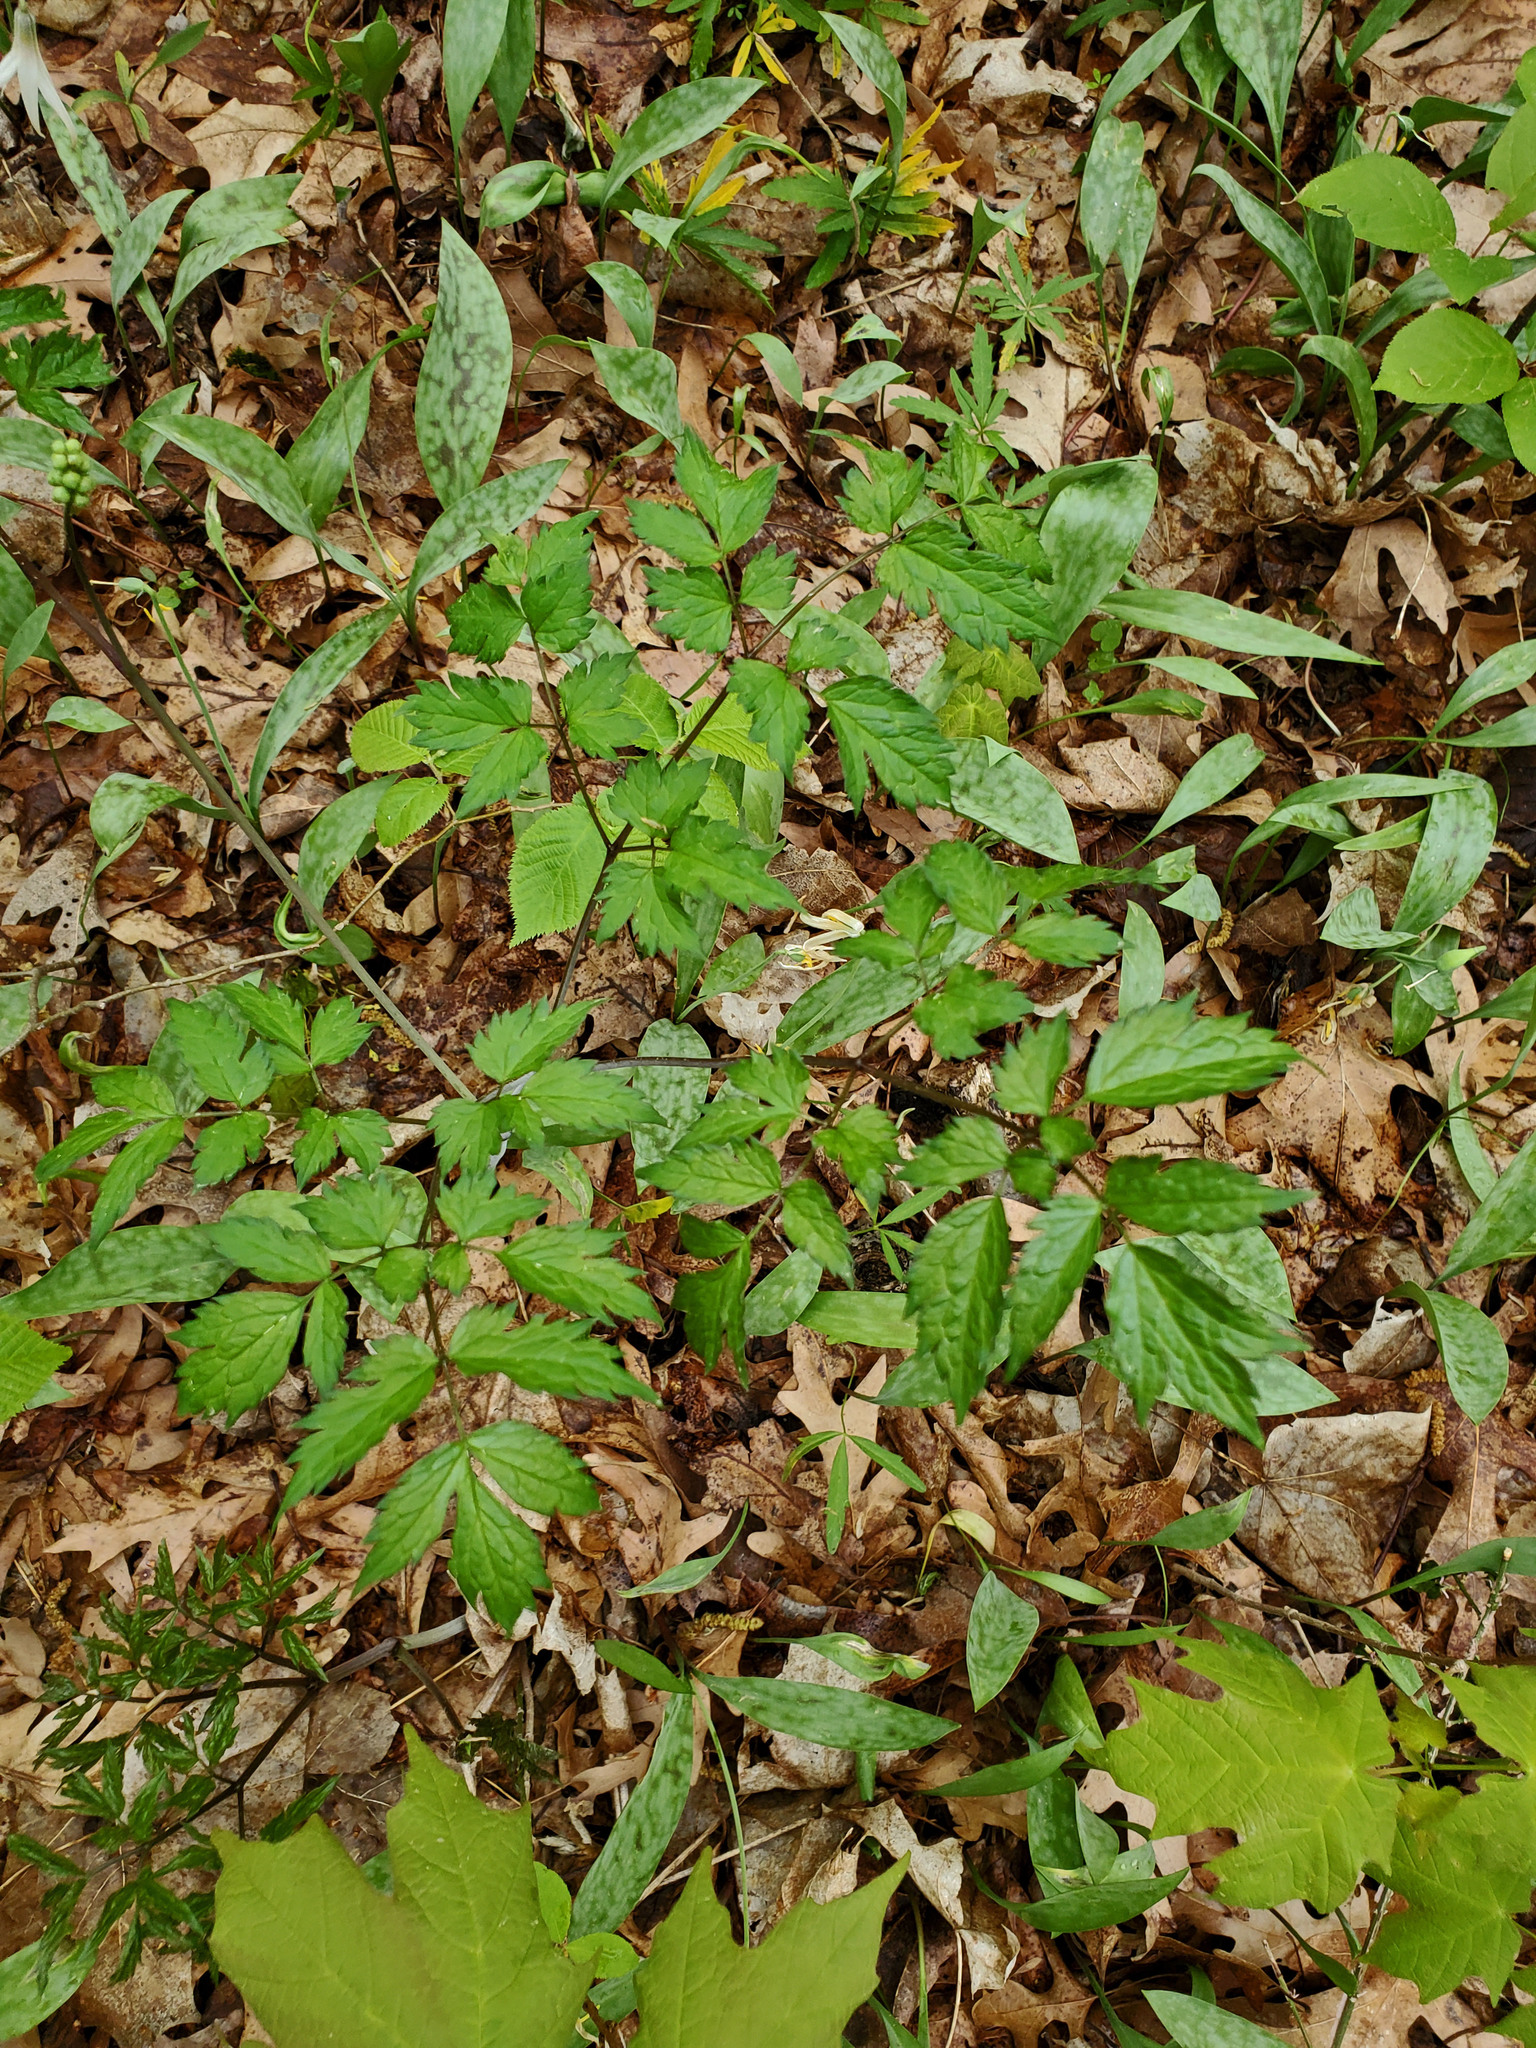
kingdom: Plantae
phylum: Tracheophyta
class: Magnoliopsida
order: Ranunculales
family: Ranunculaceae
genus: Actaea
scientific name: Actaea pachypoda
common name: Doll's-eyes
